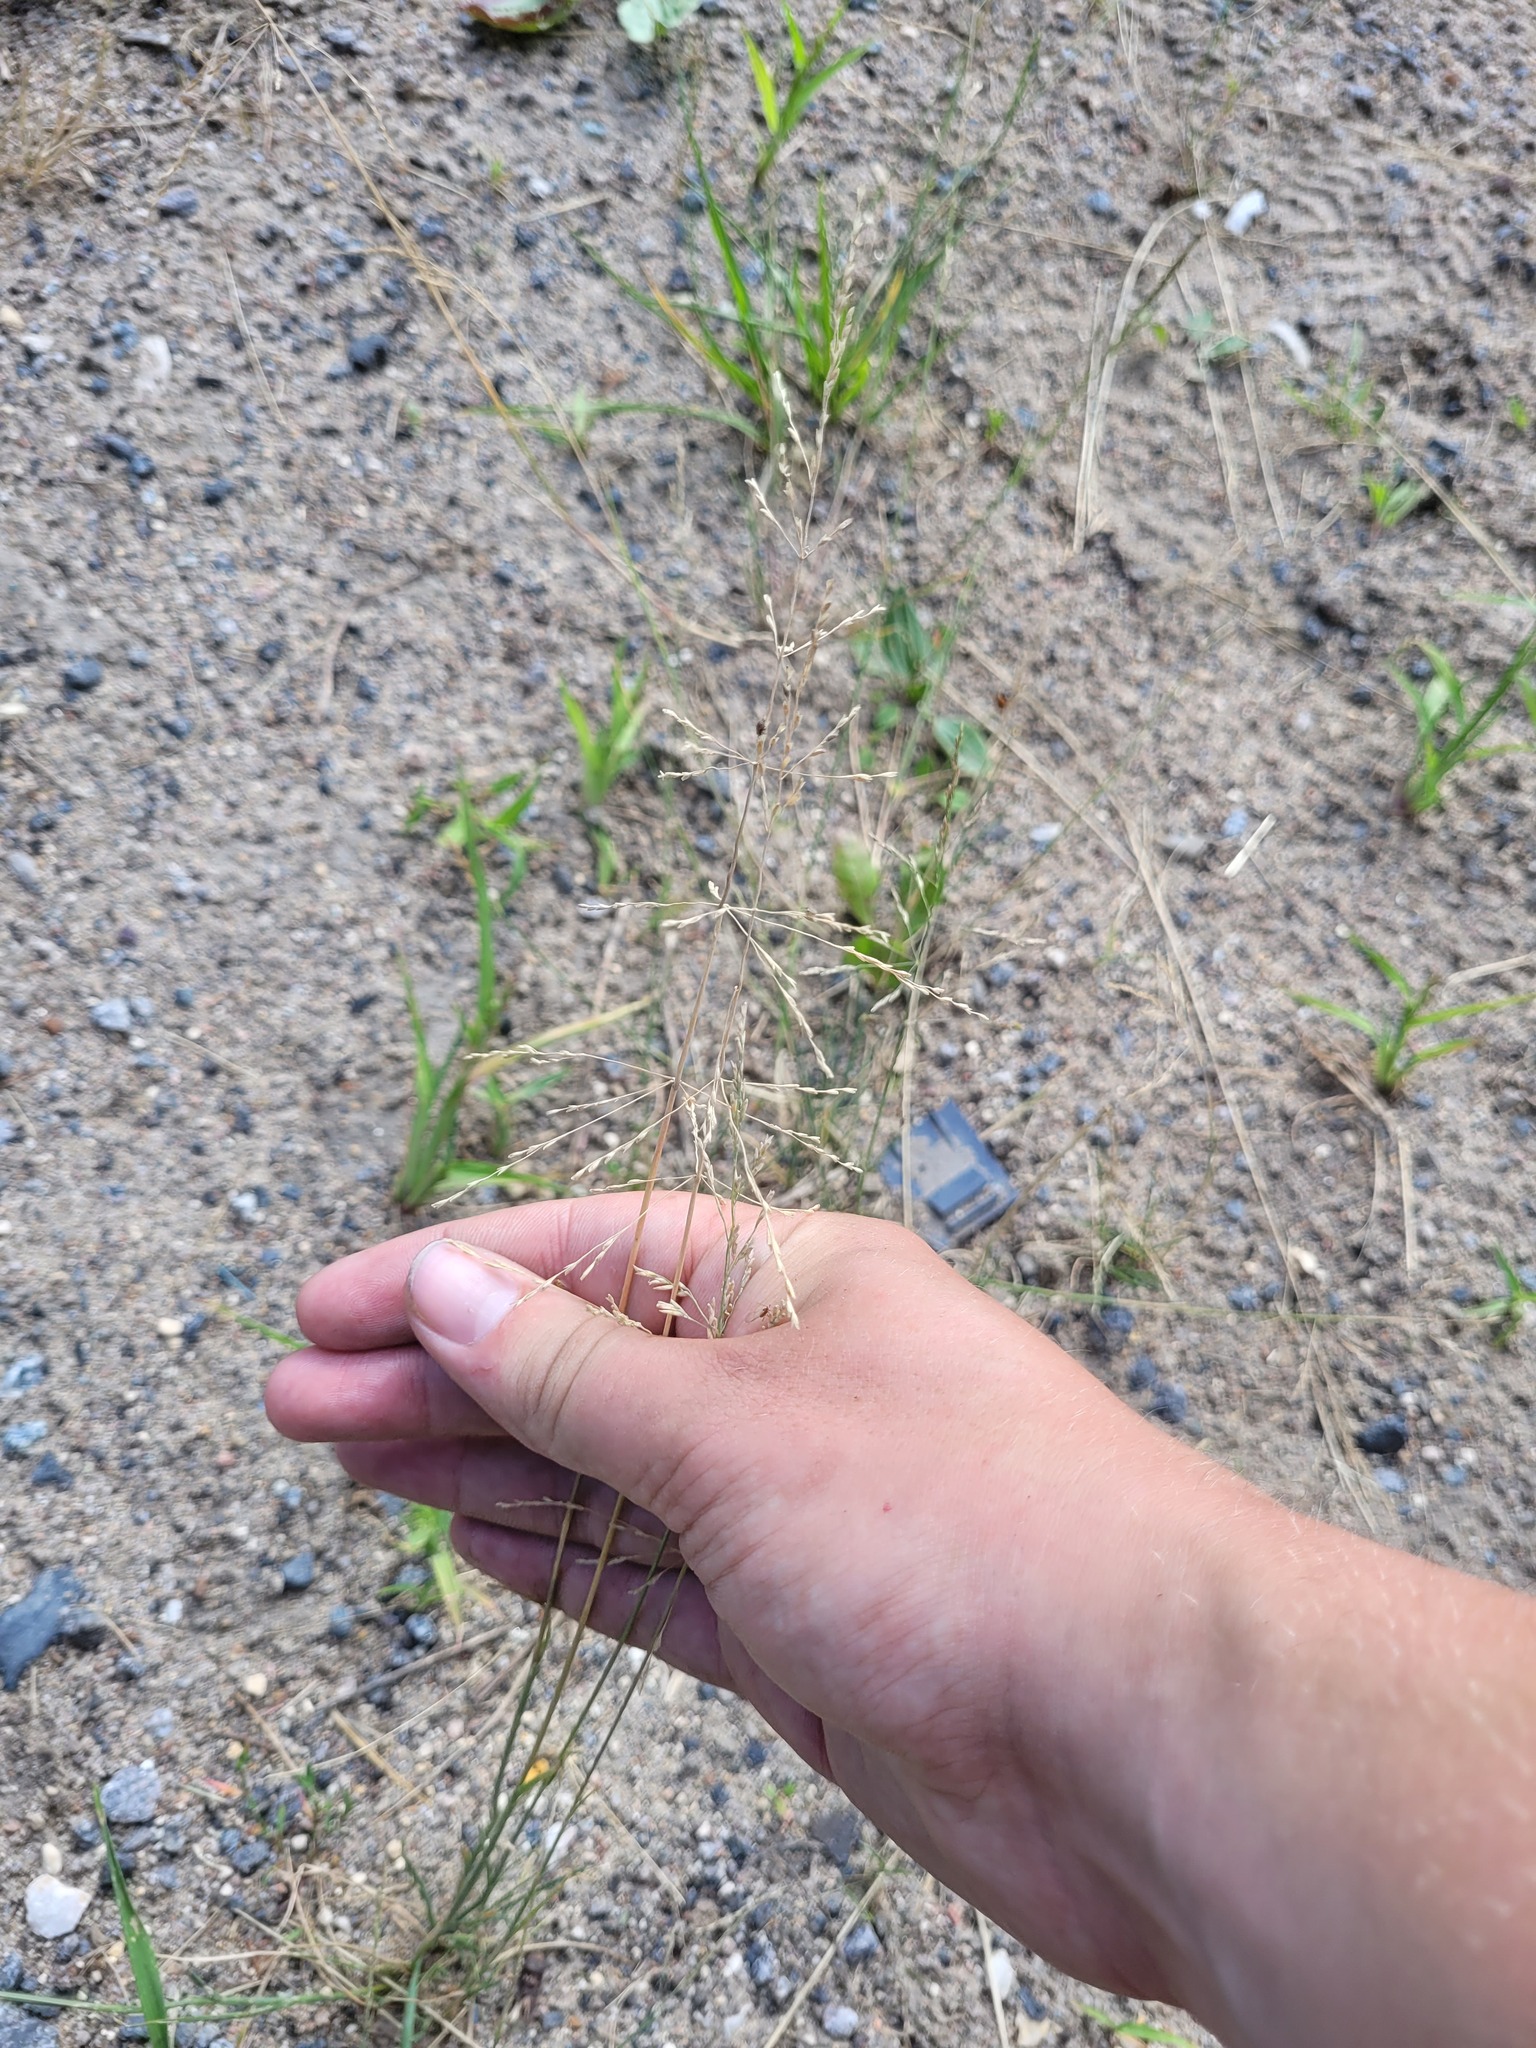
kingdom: Plantae
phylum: Tracheophyta
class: Liliopsida
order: Poales
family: Poaceae
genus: Puccinellia
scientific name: Puccinellia distans
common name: Weeping alkaligrass
